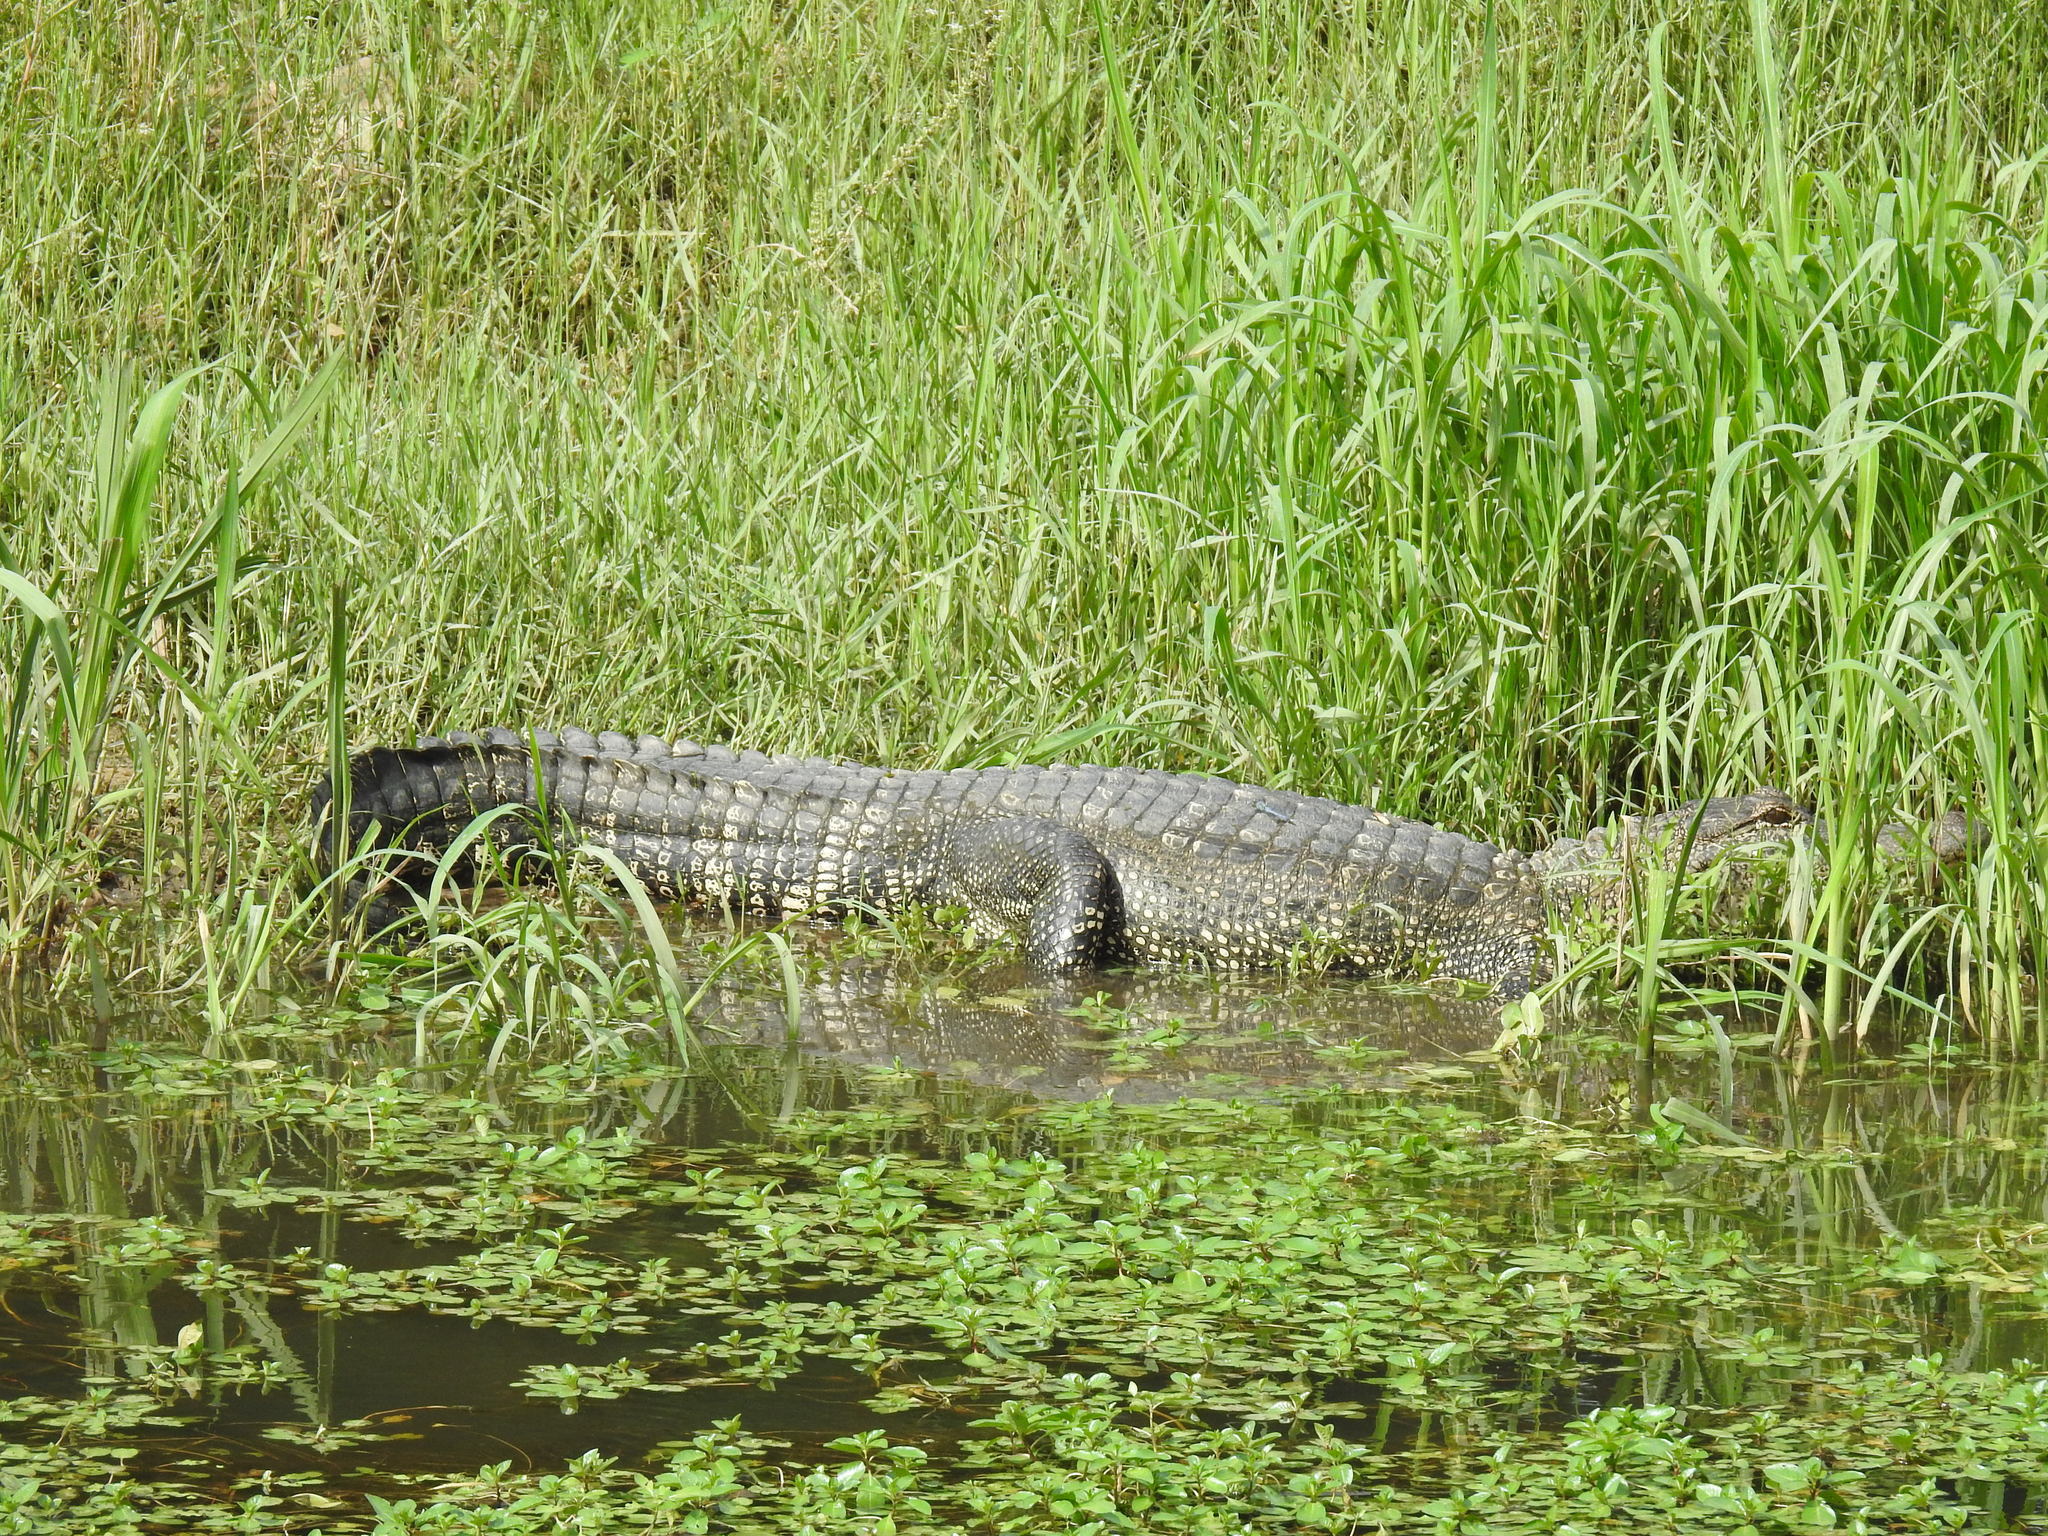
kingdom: Animalia
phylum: Chordata
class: Crocodylia
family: Alligatoridae
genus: Alligator
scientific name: Alligator mississippiensis
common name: American alligator
